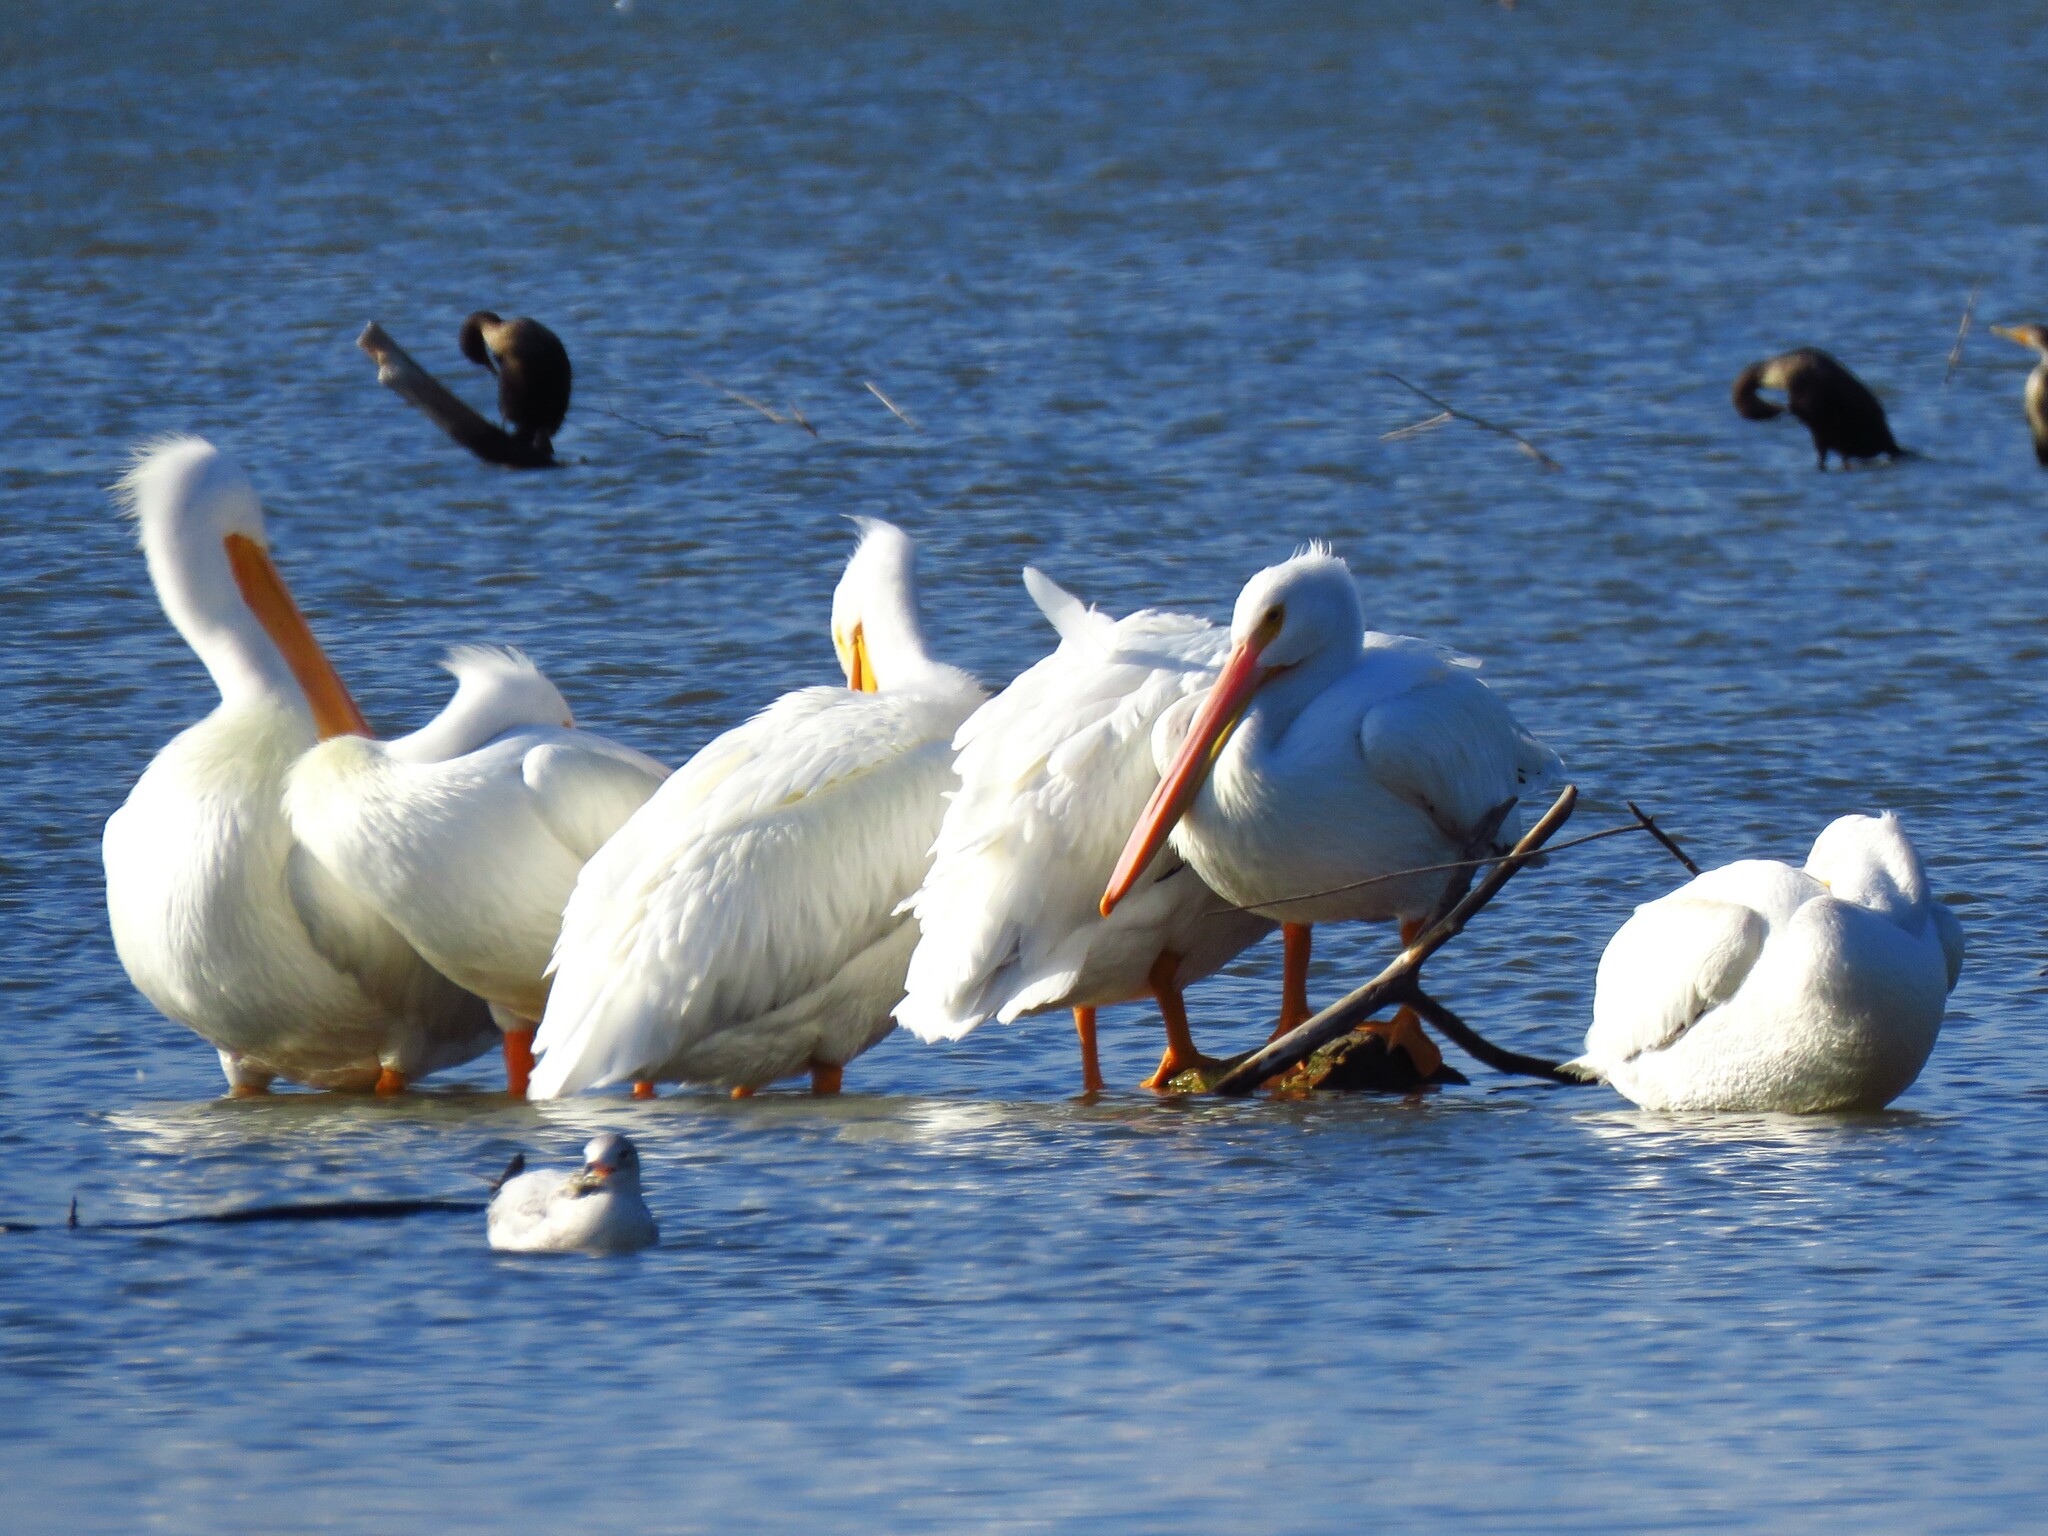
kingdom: Animalia
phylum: Chordata
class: Aves
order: Pelecaniformes
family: Pelecanidae
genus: Pelecanus
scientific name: Pelecanus erythrorhynchos
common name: American white pelican
